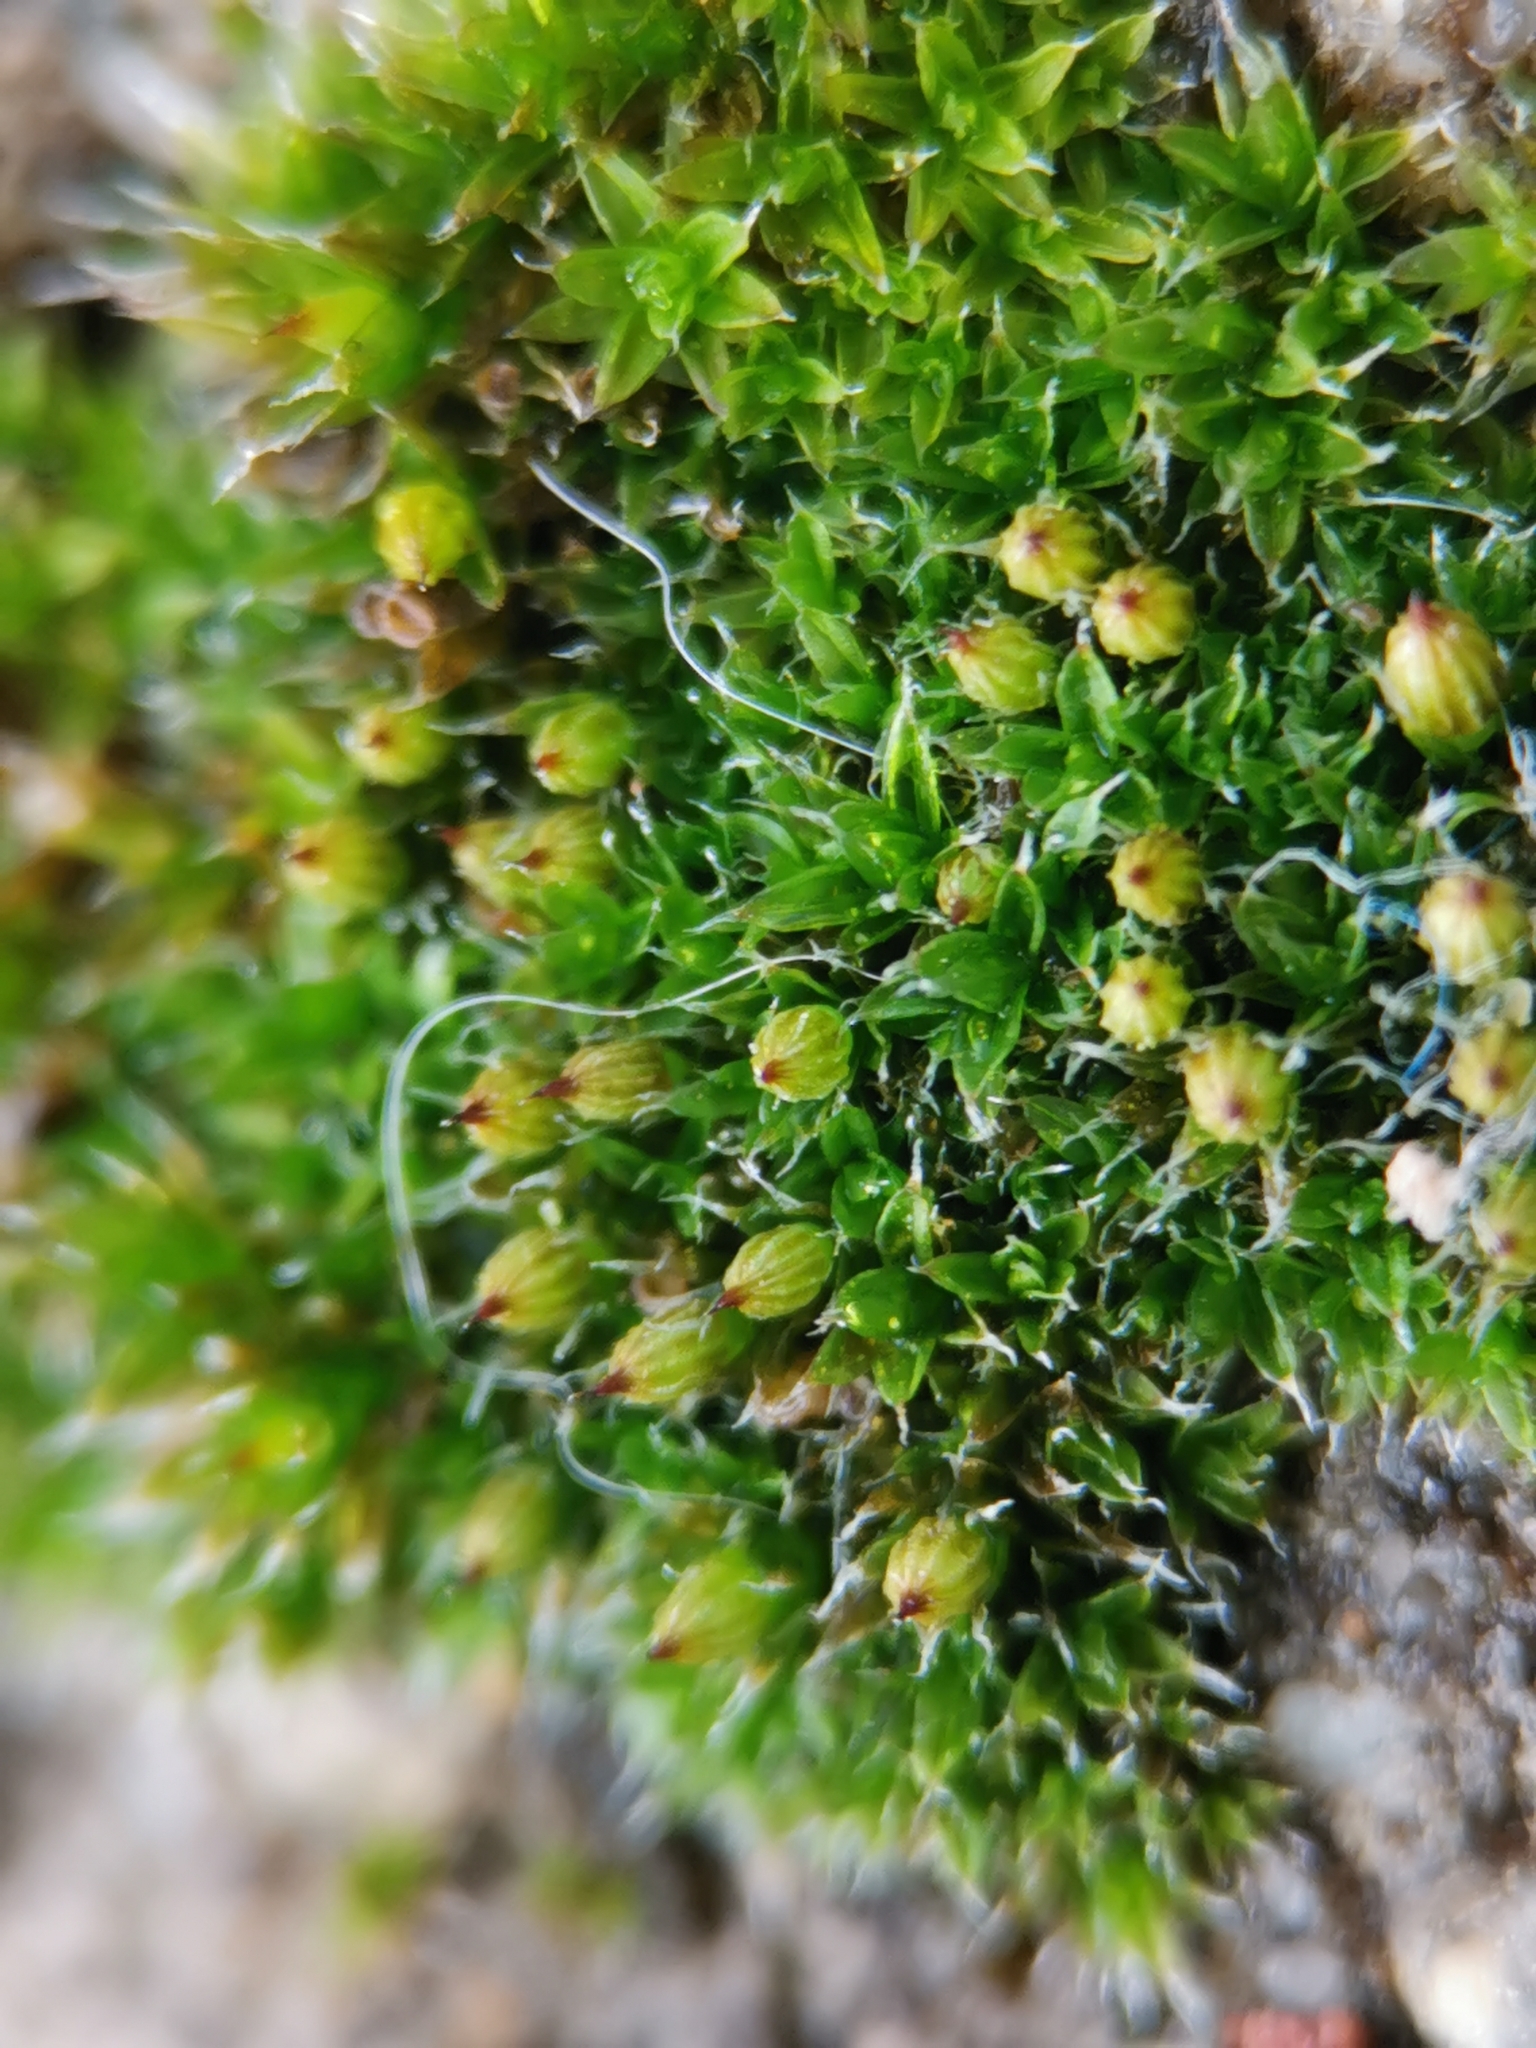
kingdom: Plantae
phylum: Bryophyta
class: Bryopsida
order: Orthotrichales
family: Orthotrichaceae
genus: Orthotrichum
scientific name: Orthotrichum diaphanum
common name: White-tipped bristle-moss
